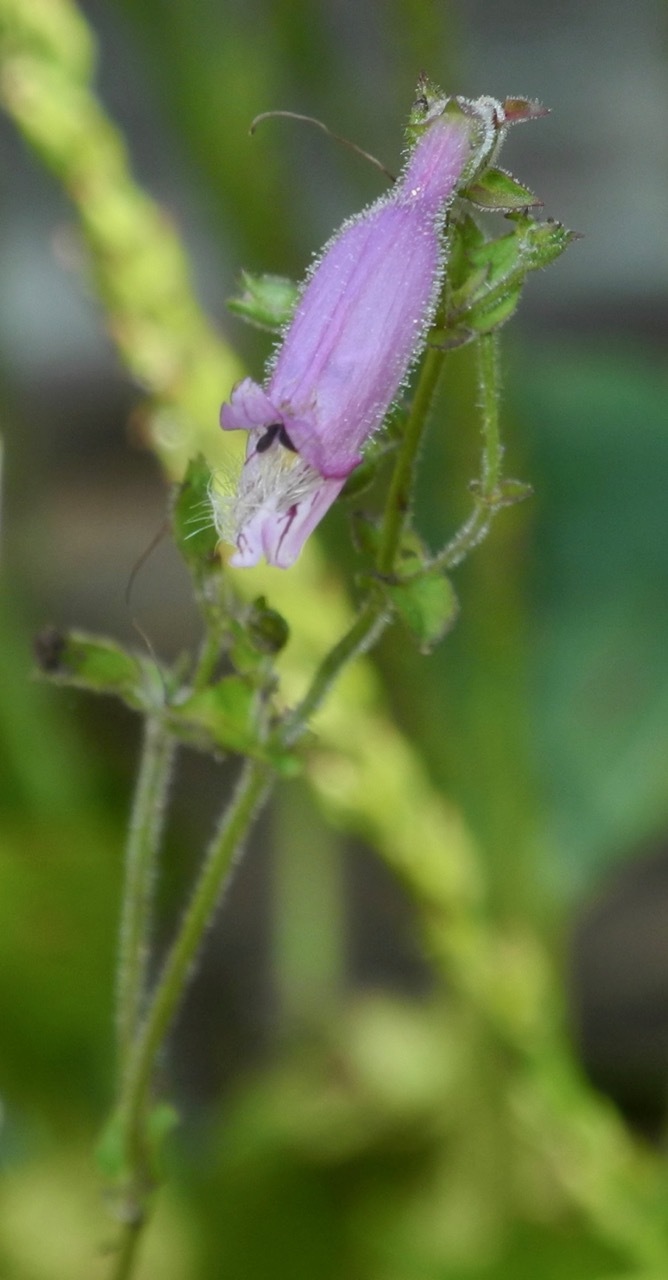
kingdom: Plantae
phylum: Tracheophyta
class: Magnoliopsida
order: Lamiales
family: Plantaginaceae
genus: Penstemon
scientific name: Penstemon laevigatus
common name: Eastern beardtongue
